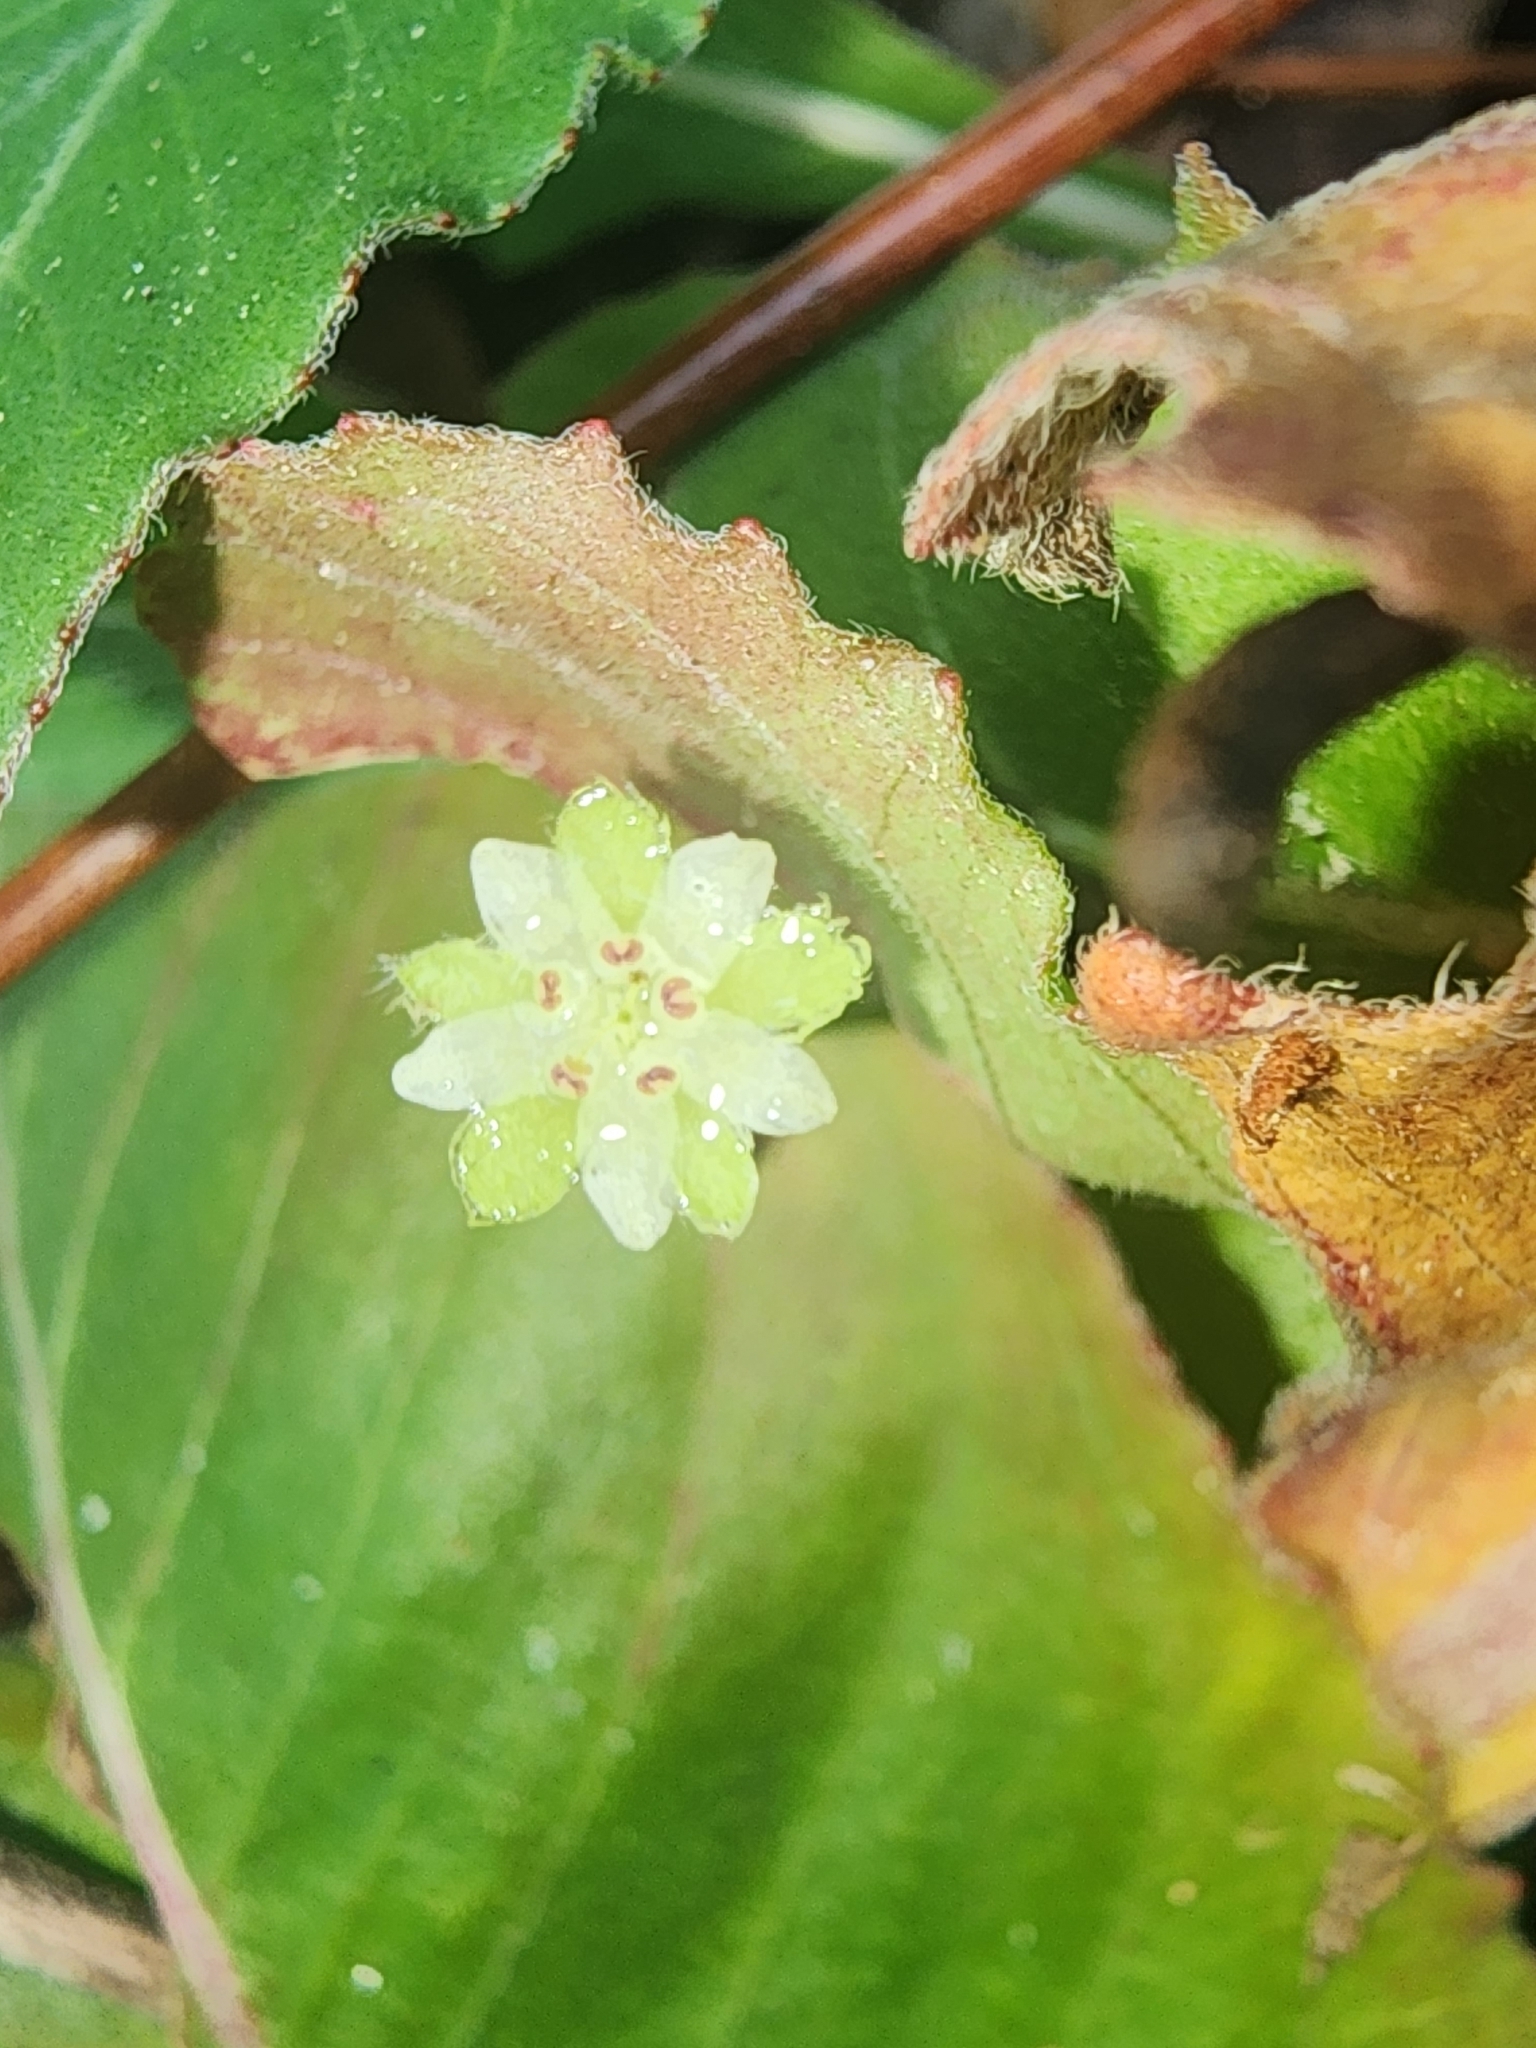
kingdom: Plantae
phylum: Tracheophyta
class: Magnoliopsida
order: Solanales
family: Convolvulaceae
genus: Dichondra
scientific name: Dichondra carolinensis
